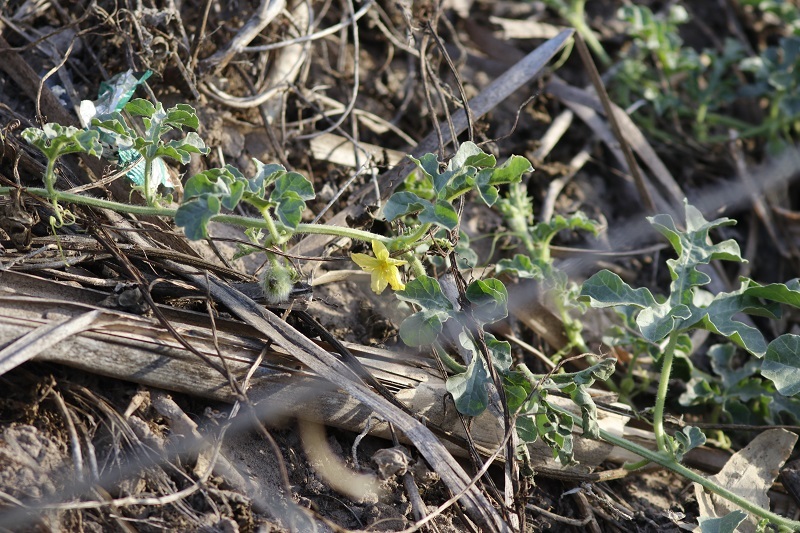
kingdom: Plantae
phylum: Tracheophyta
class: Magnoliopsida
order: Cucurbitales
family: Cucurbitaceae
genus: Citrullus
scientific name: Citrullus amarus
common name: Fodder-melon
